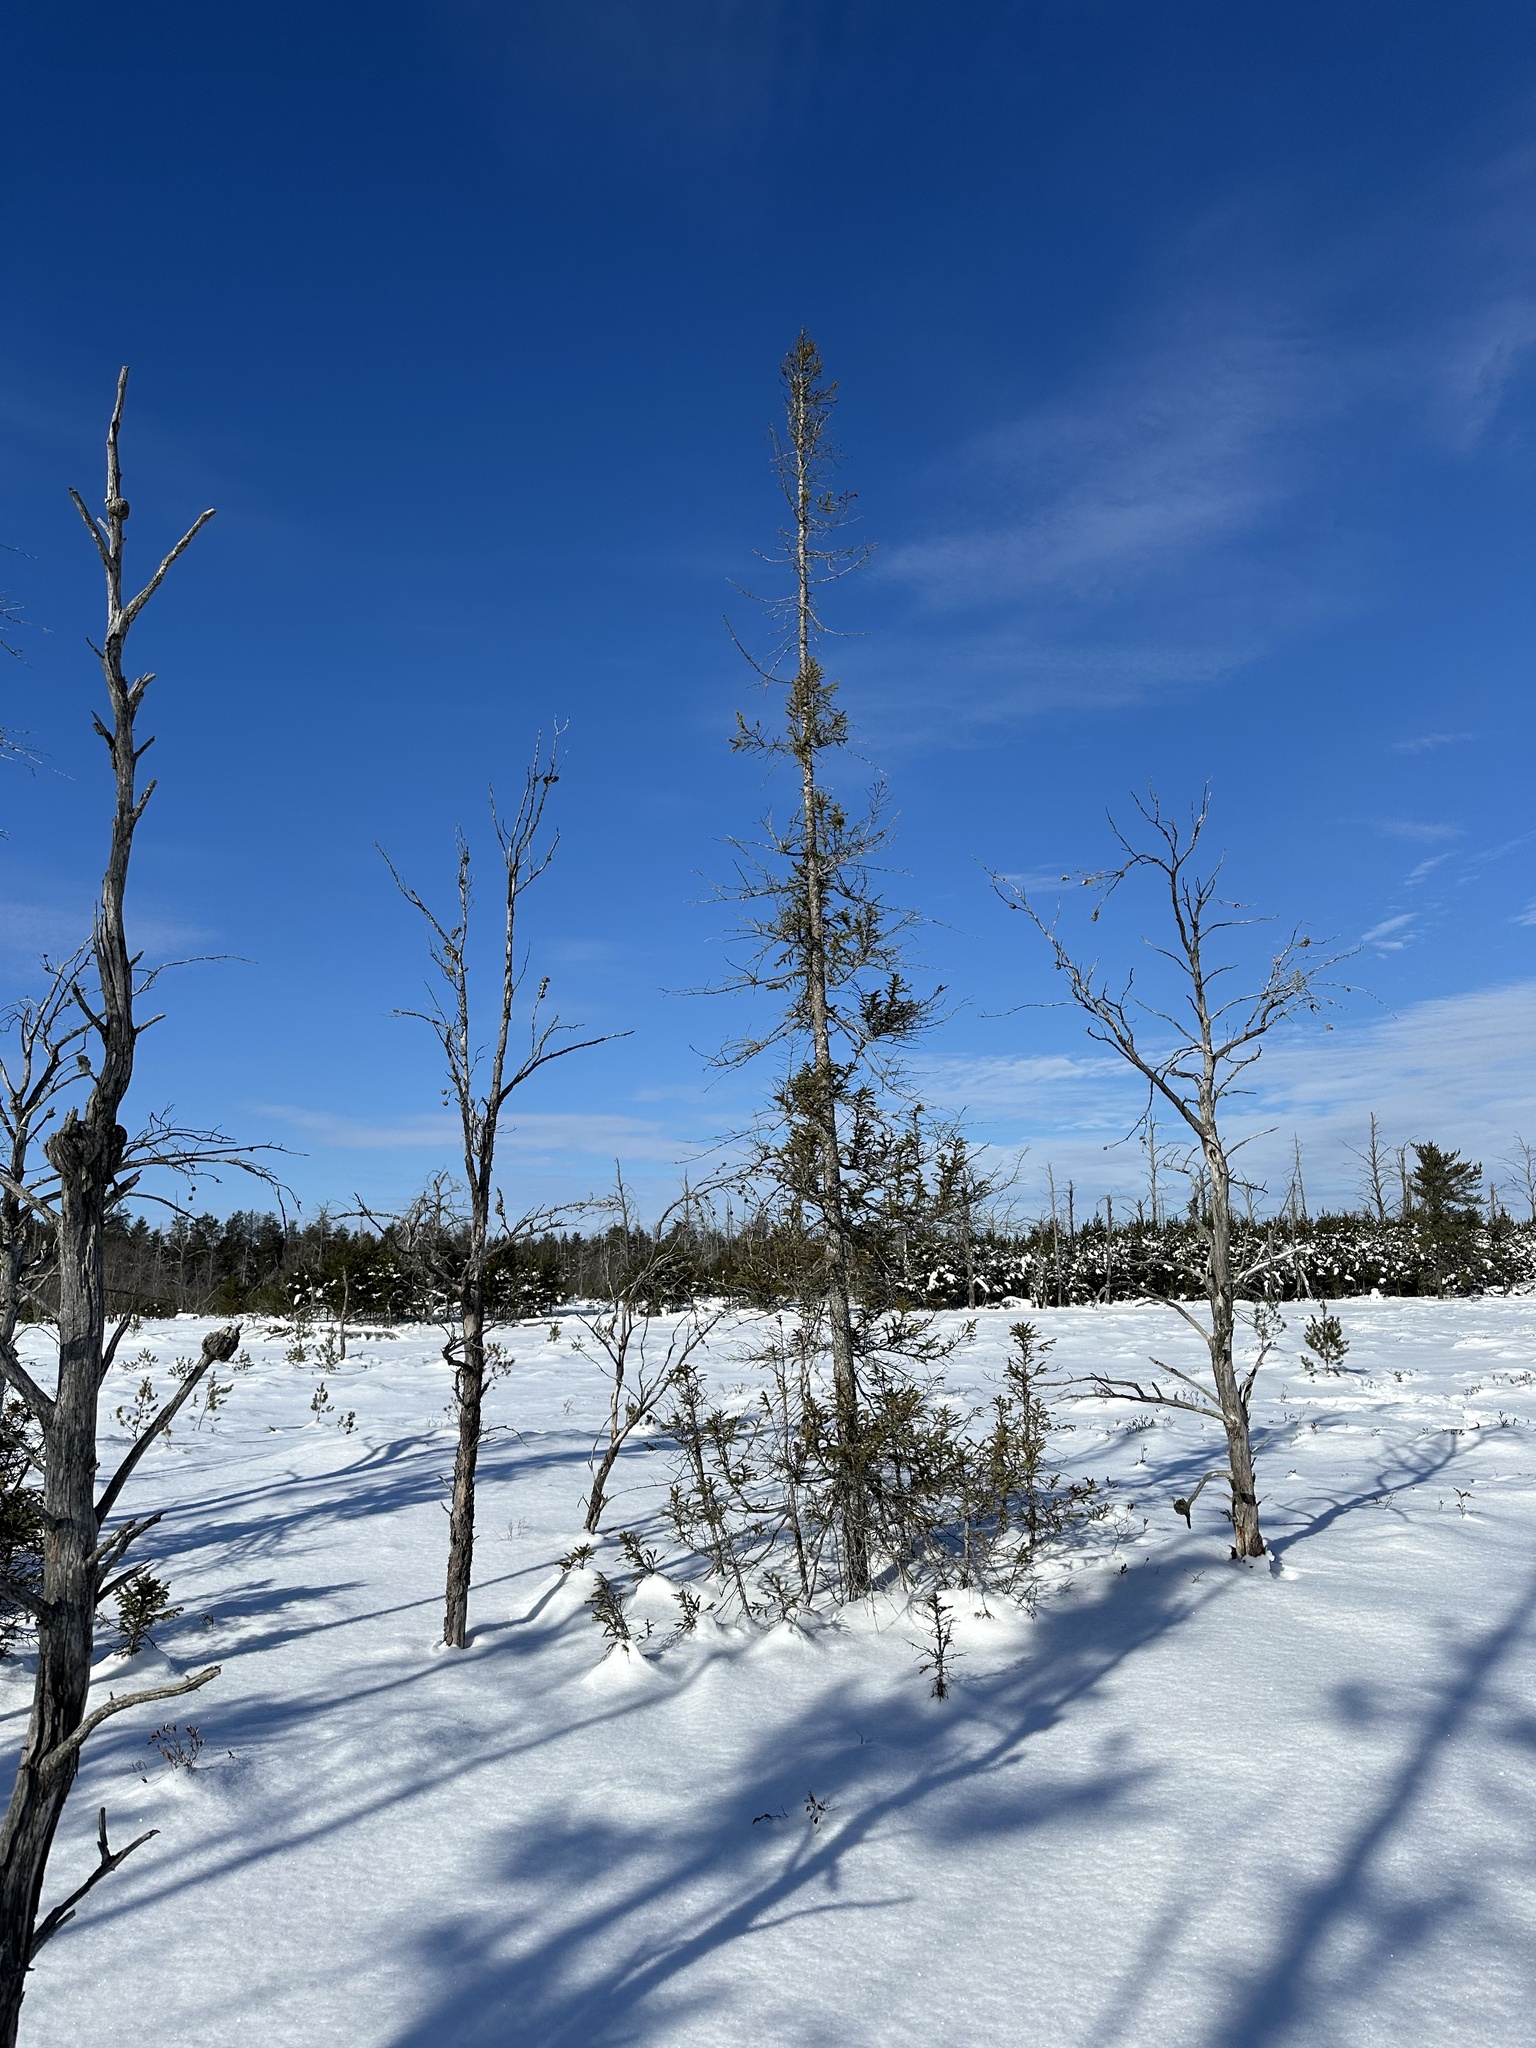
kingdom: Plantae
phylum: Tracheophyta
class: Pinopsida
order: Pinales
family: Pinaceae
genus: Picea
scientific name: Picea mariana
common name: Black spruce
